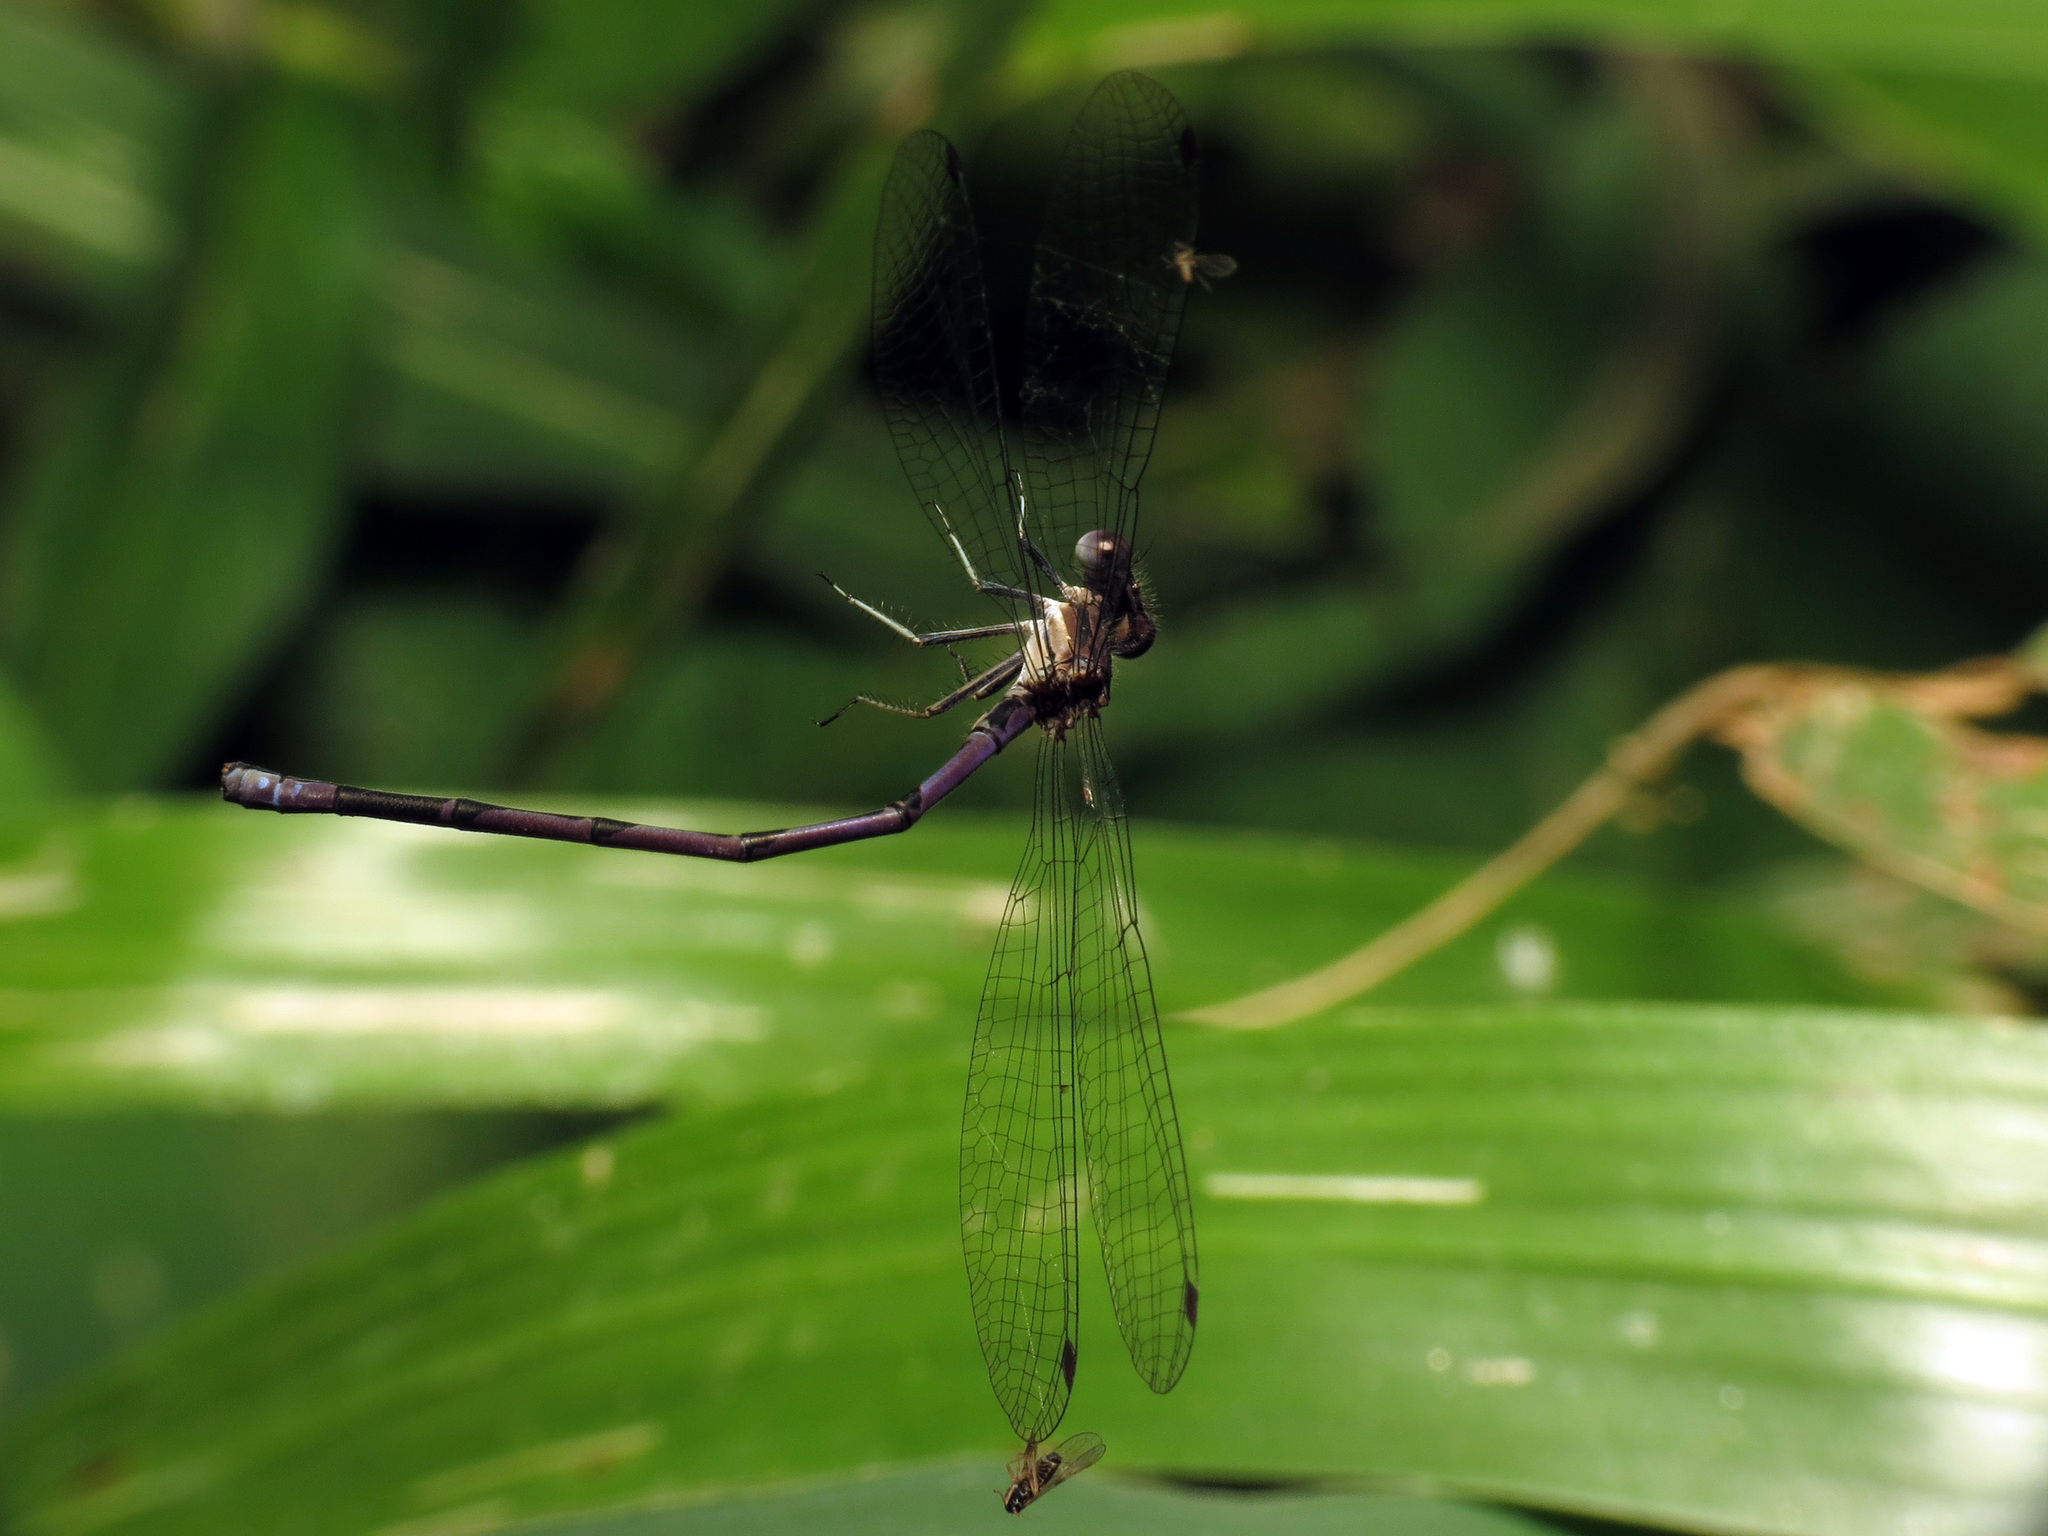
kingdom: Animalia
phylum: Arthropoda
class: Insecta
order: Odonata
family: Coenagrionidae
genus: Argia
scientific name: Argia fumipennis
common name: Variable dancer
